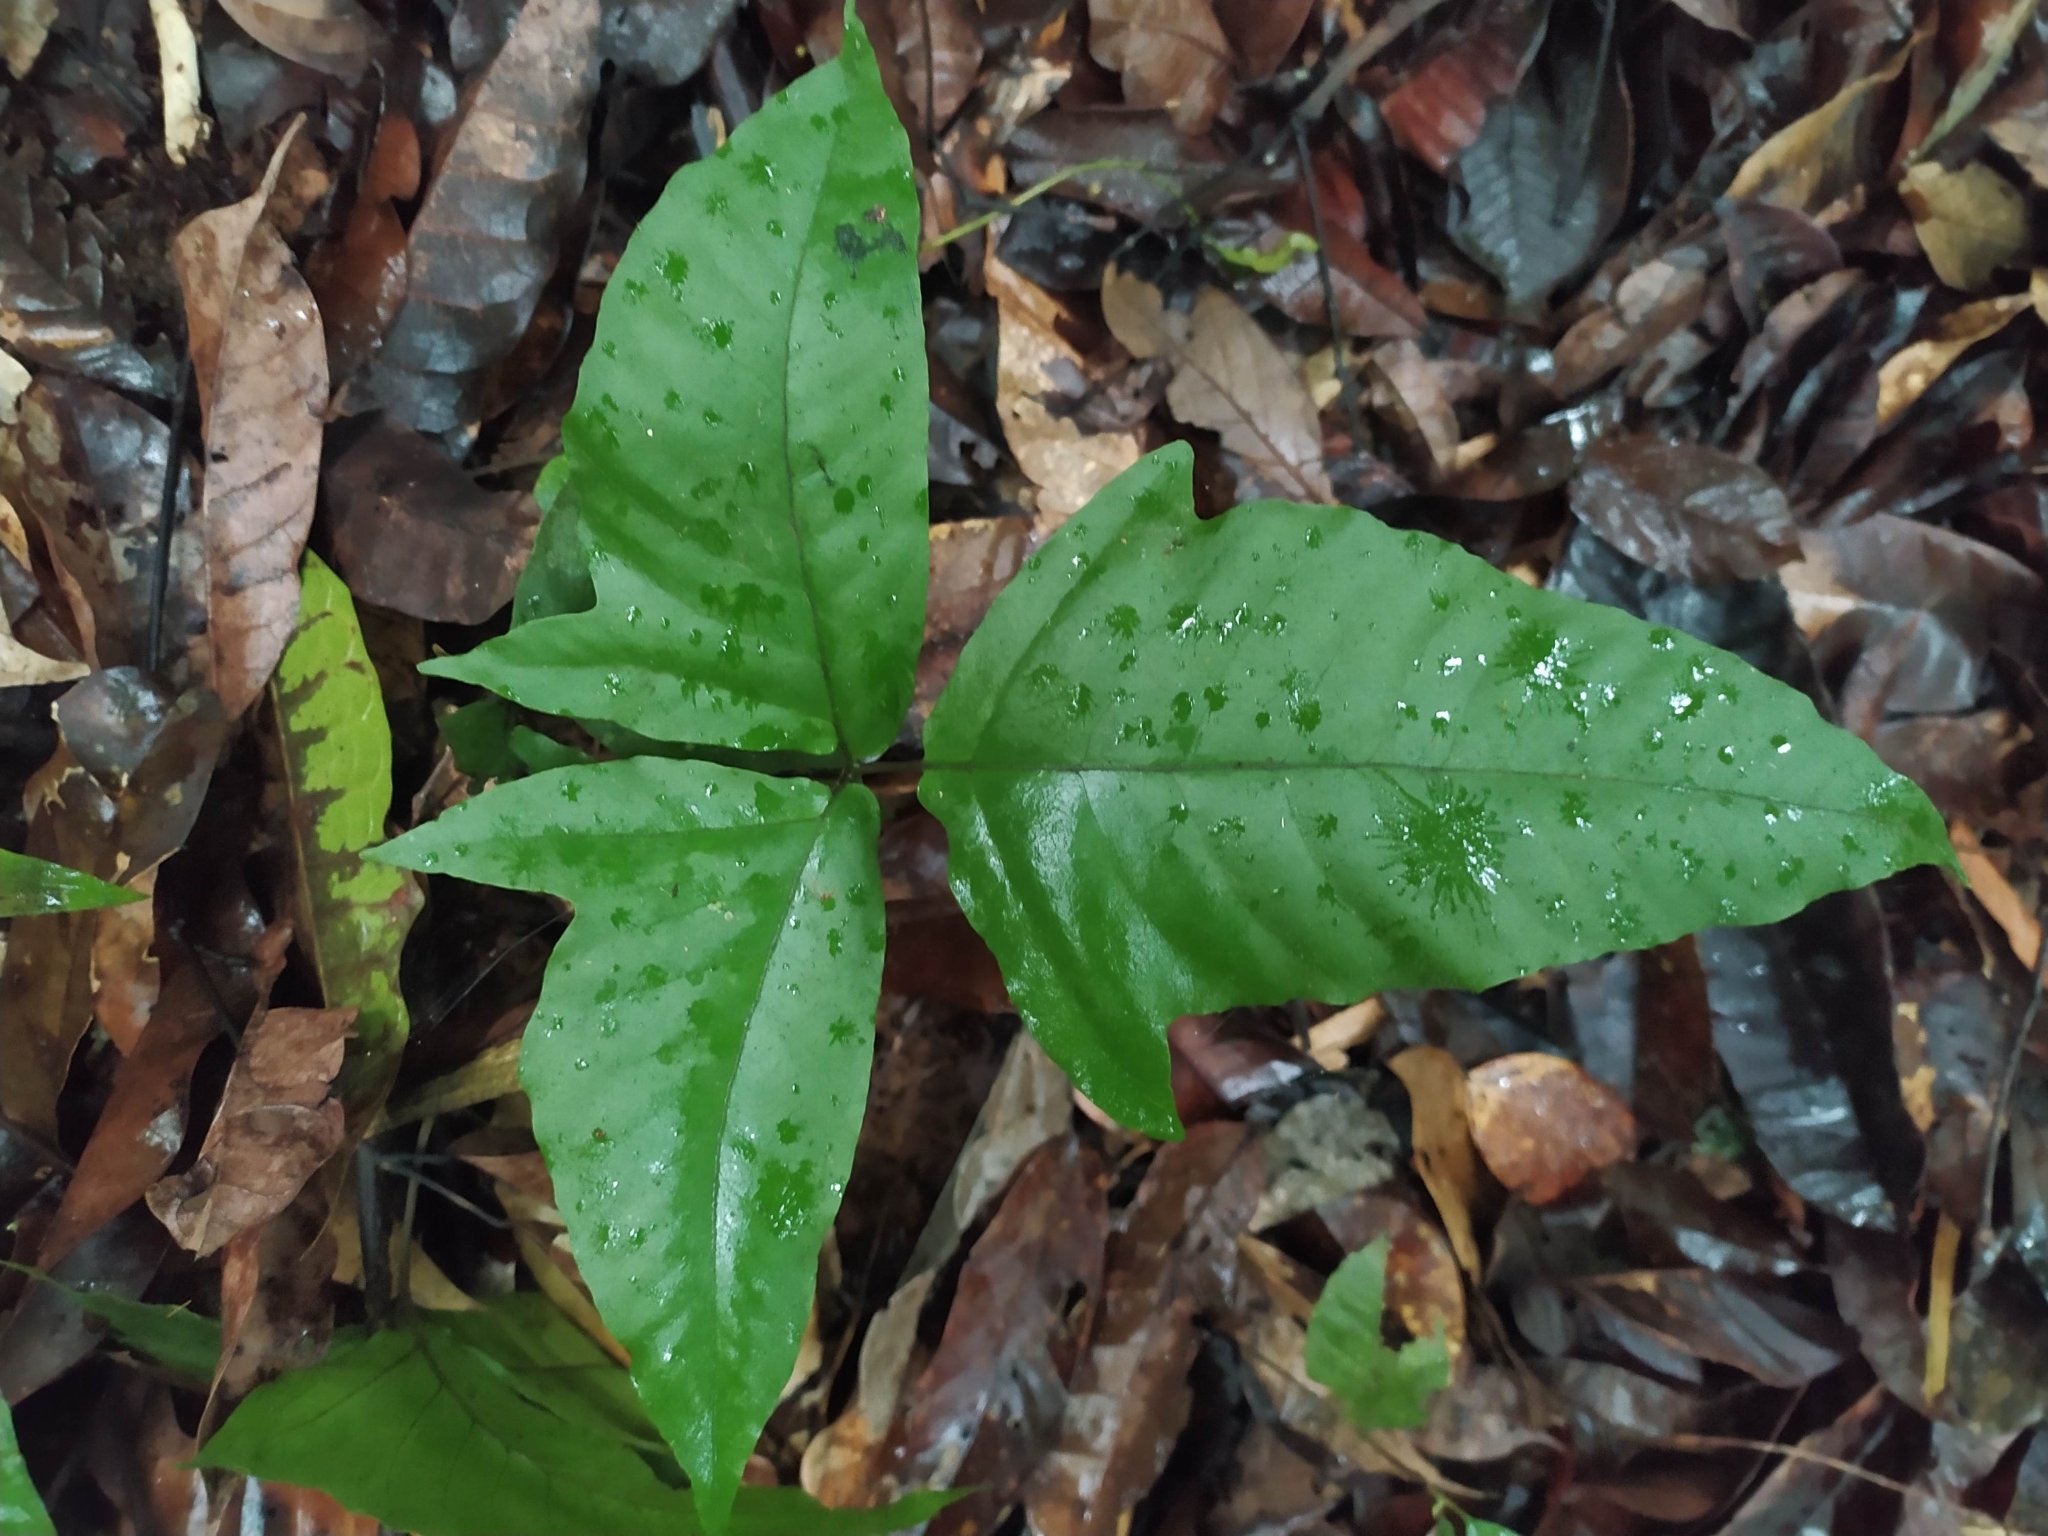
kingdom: Plantae
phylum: Tracheophyta
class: Polypodiopsida
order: Polypodiales
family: Tectariaceae
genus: Tectaria
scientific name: Tectaria
